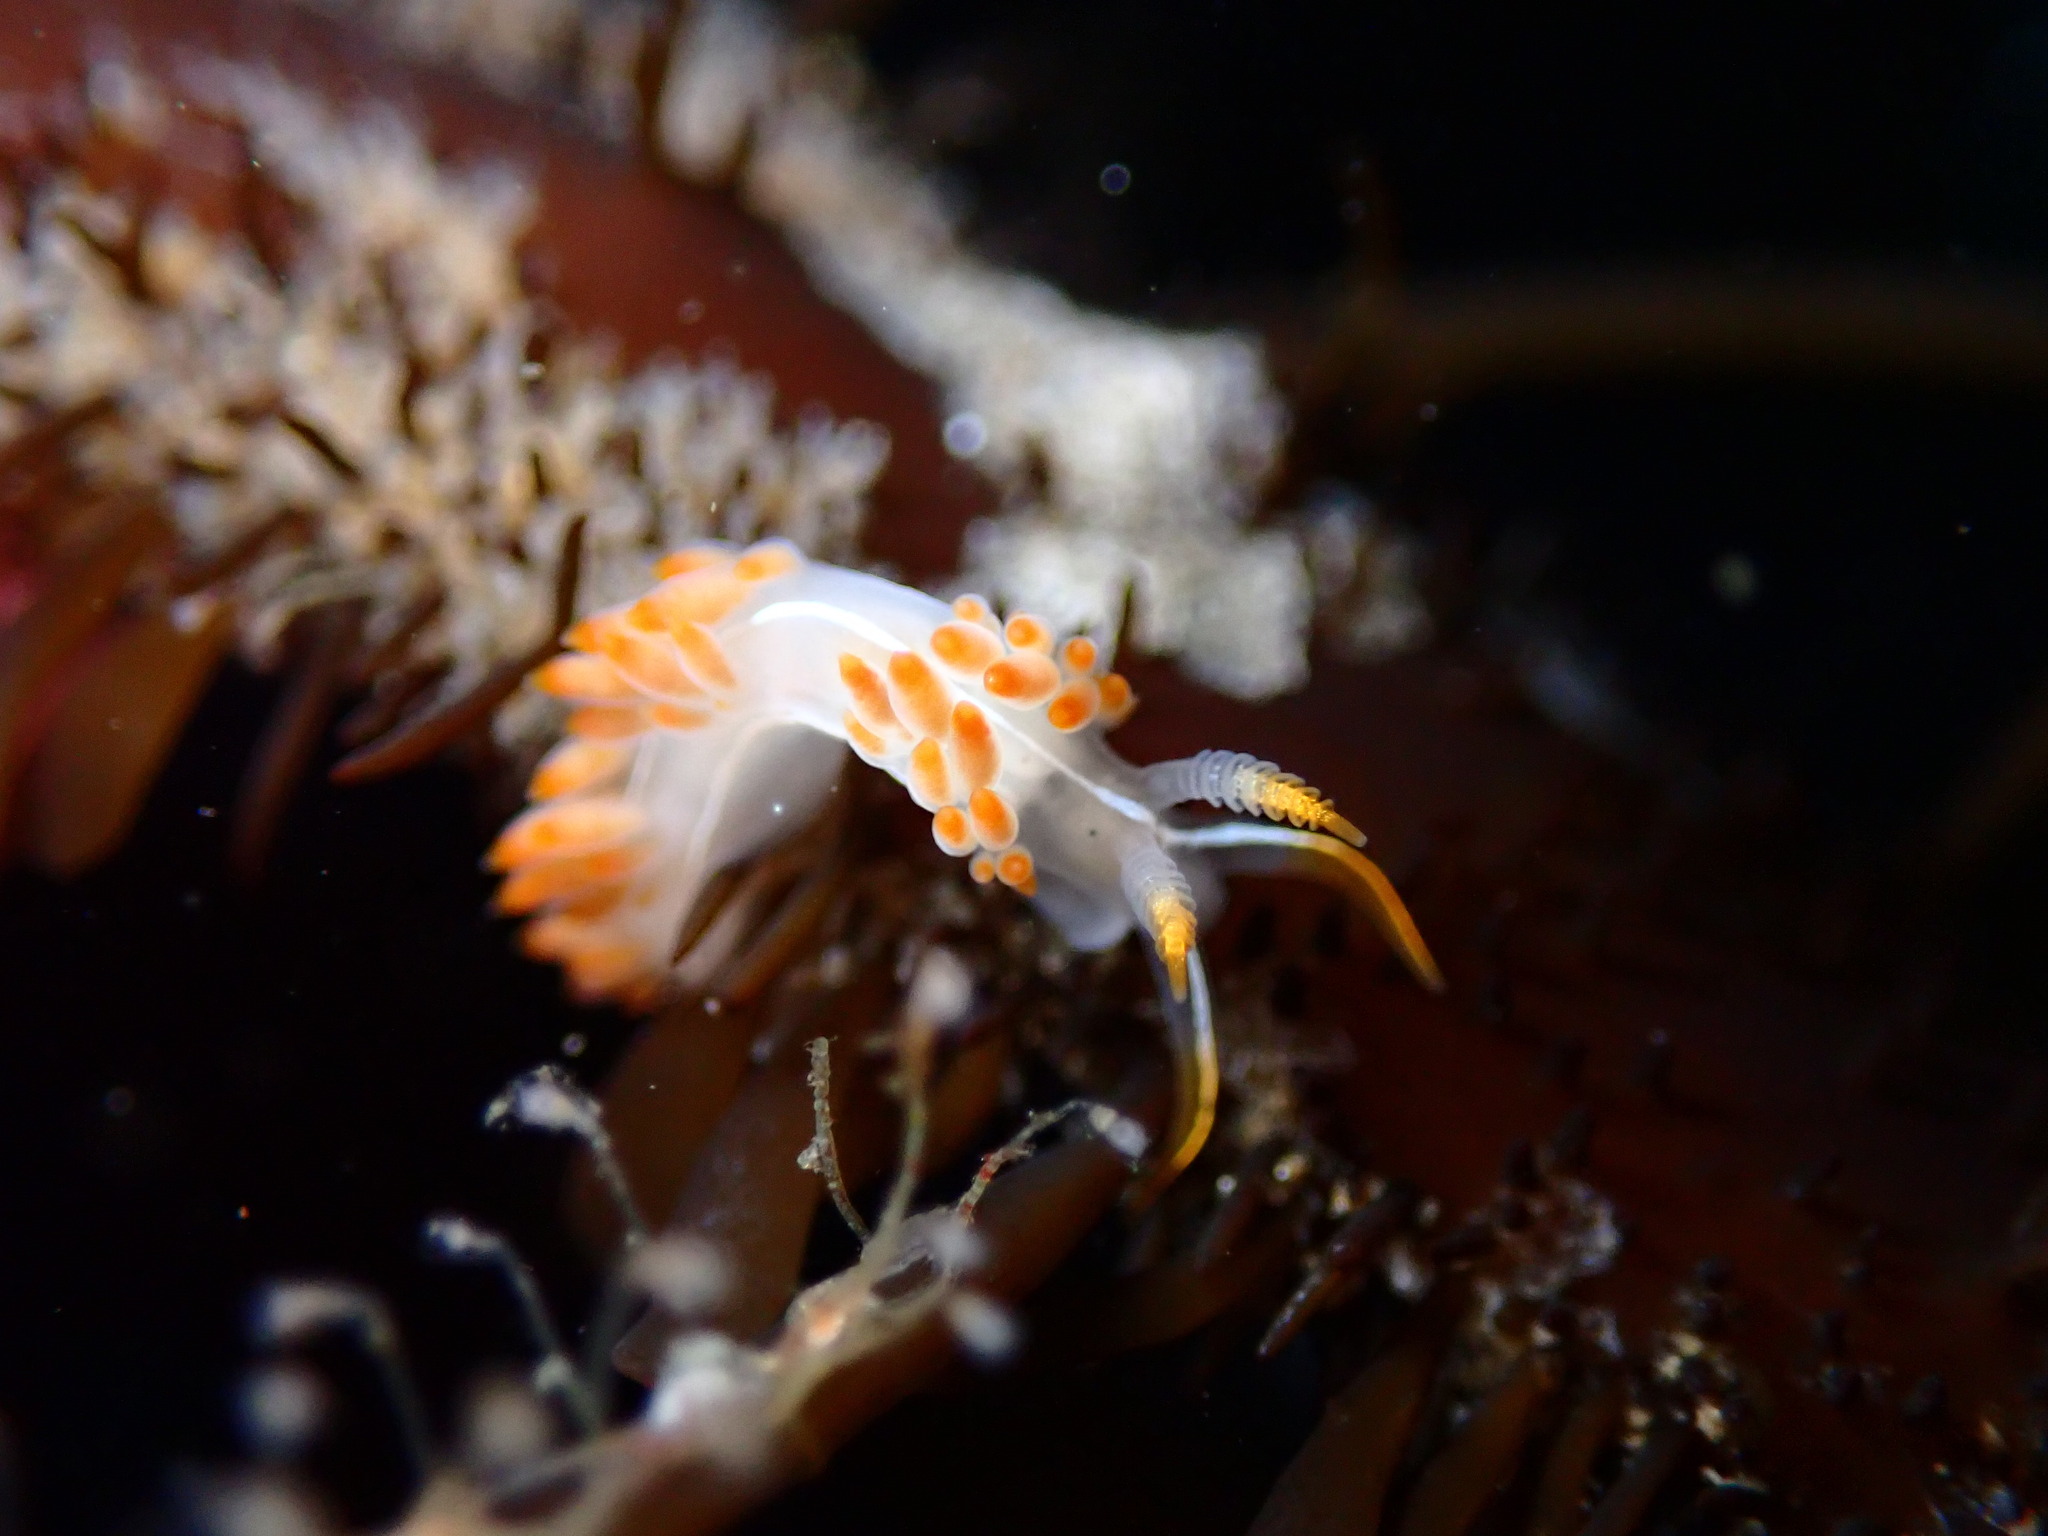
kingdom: Animalia
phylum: Mollusca
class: Gastropoda
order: Nudibranchia
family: Coryphellidae
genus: Coryphella
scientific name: Coryphella trilineata
